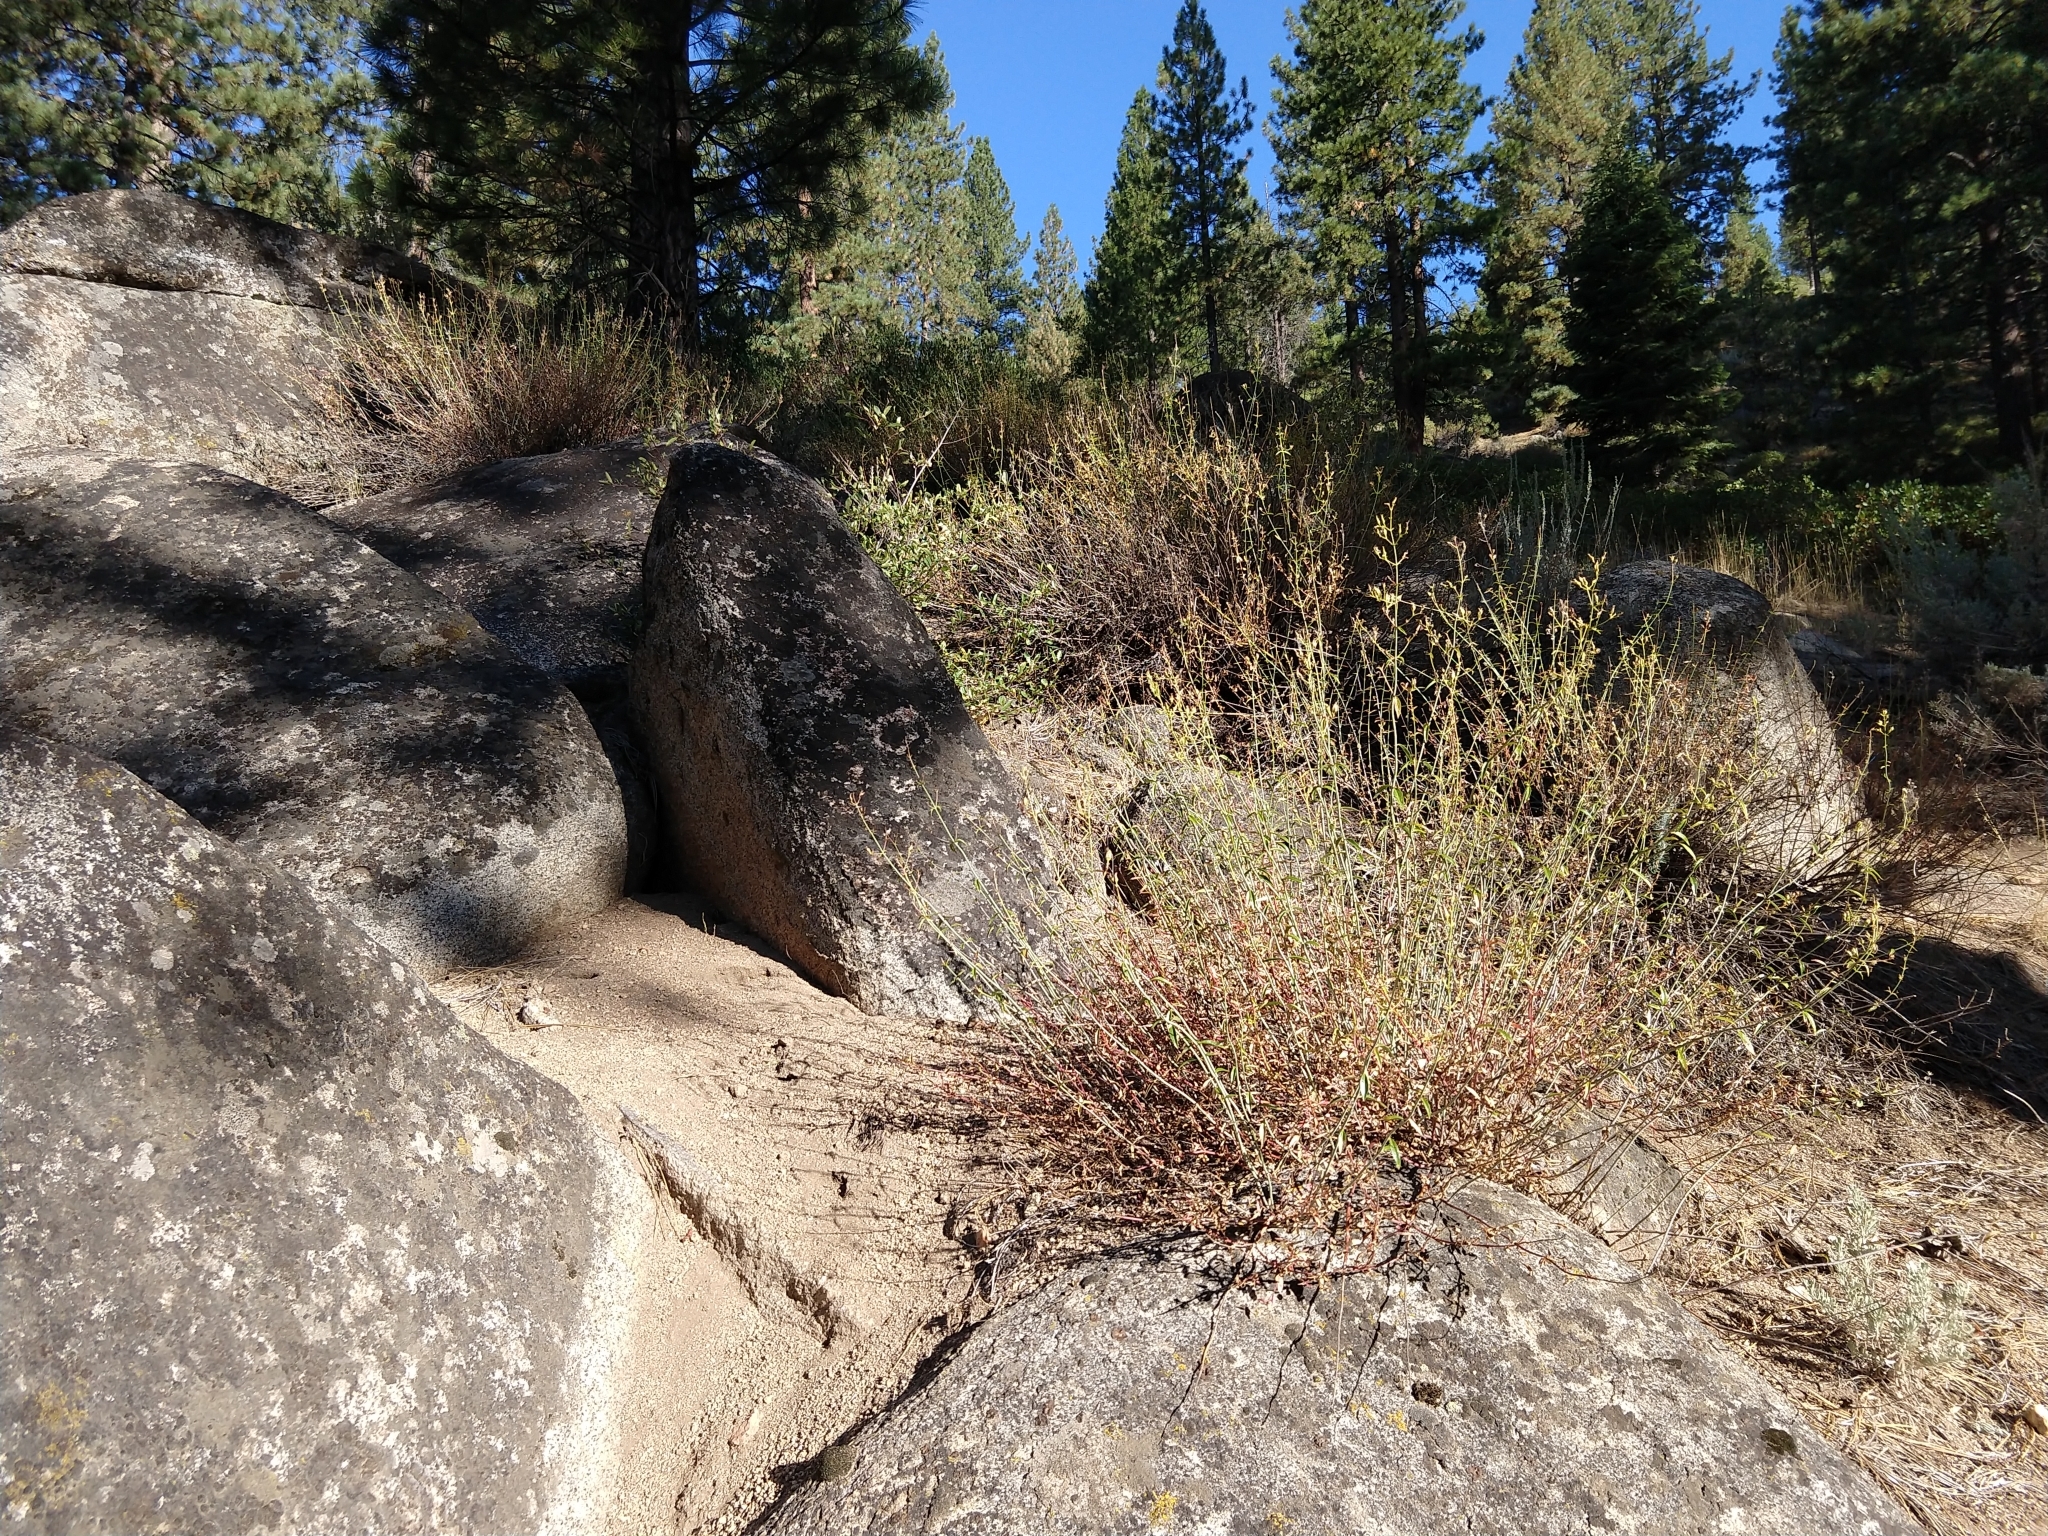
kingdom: Plantae
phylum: Tracheophyta
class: Magnoliopsida
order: Lamiales
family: Plantaginaceae
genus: Keckiella
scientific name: Keckiella breviflora
